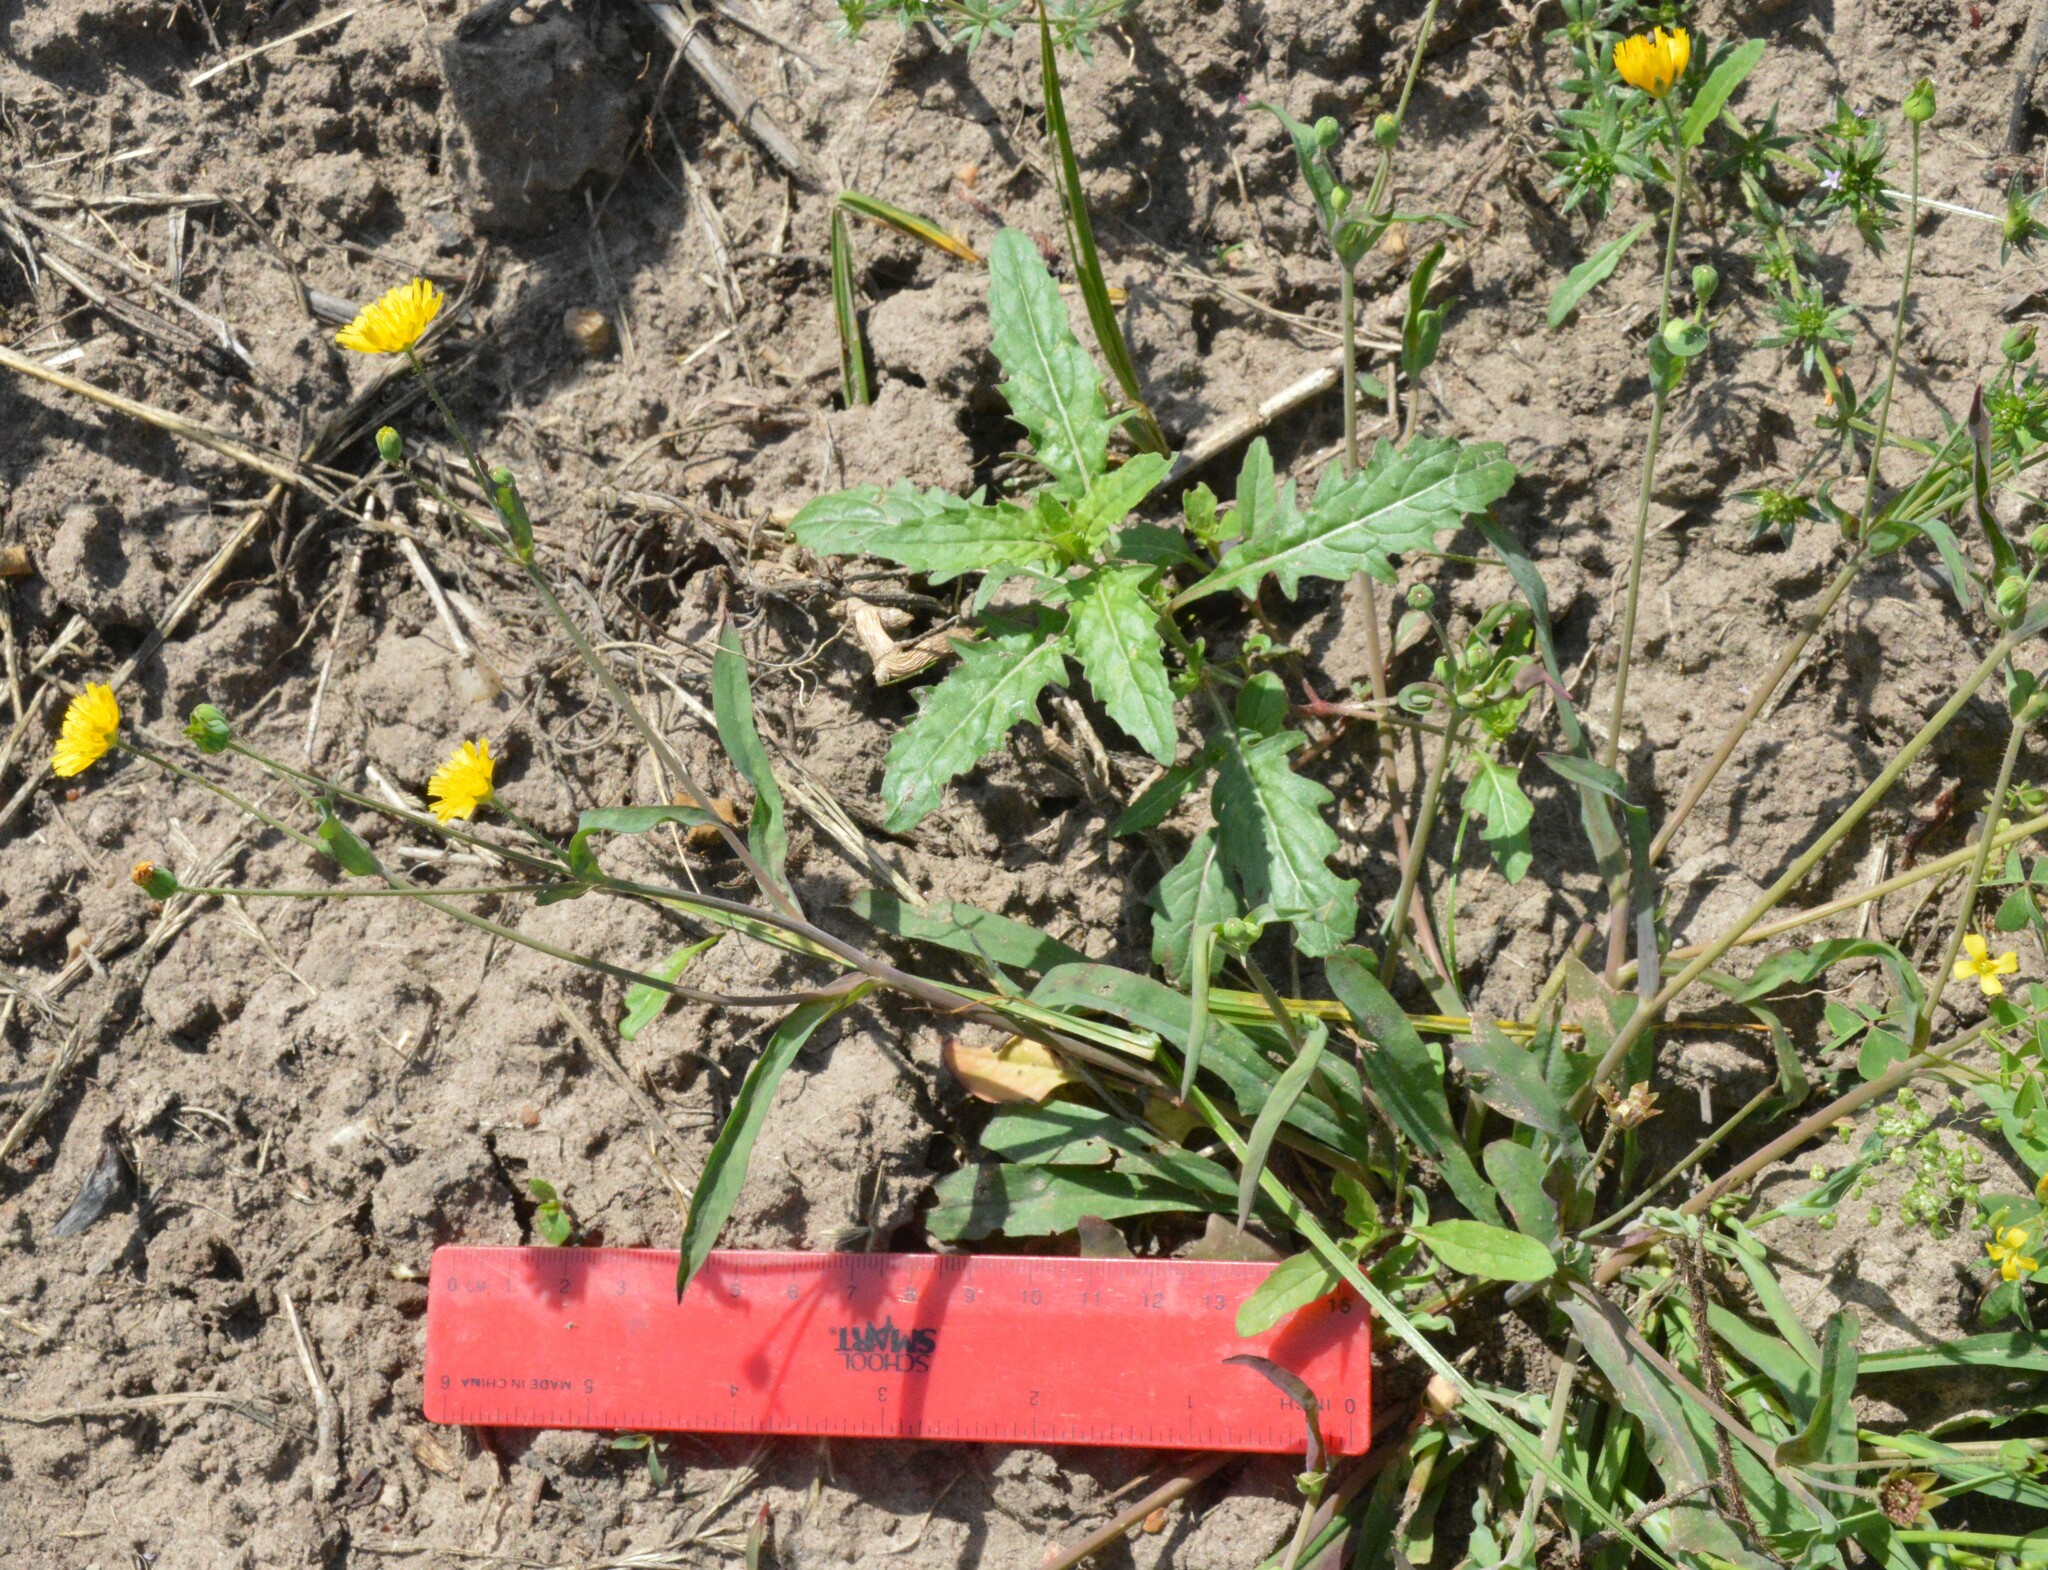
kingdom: Plantae
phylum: Tracheophyta
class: Magnoliopsida
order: Asterales
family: Asteraceae
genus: Krigia
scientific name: Krigia cespitosa
